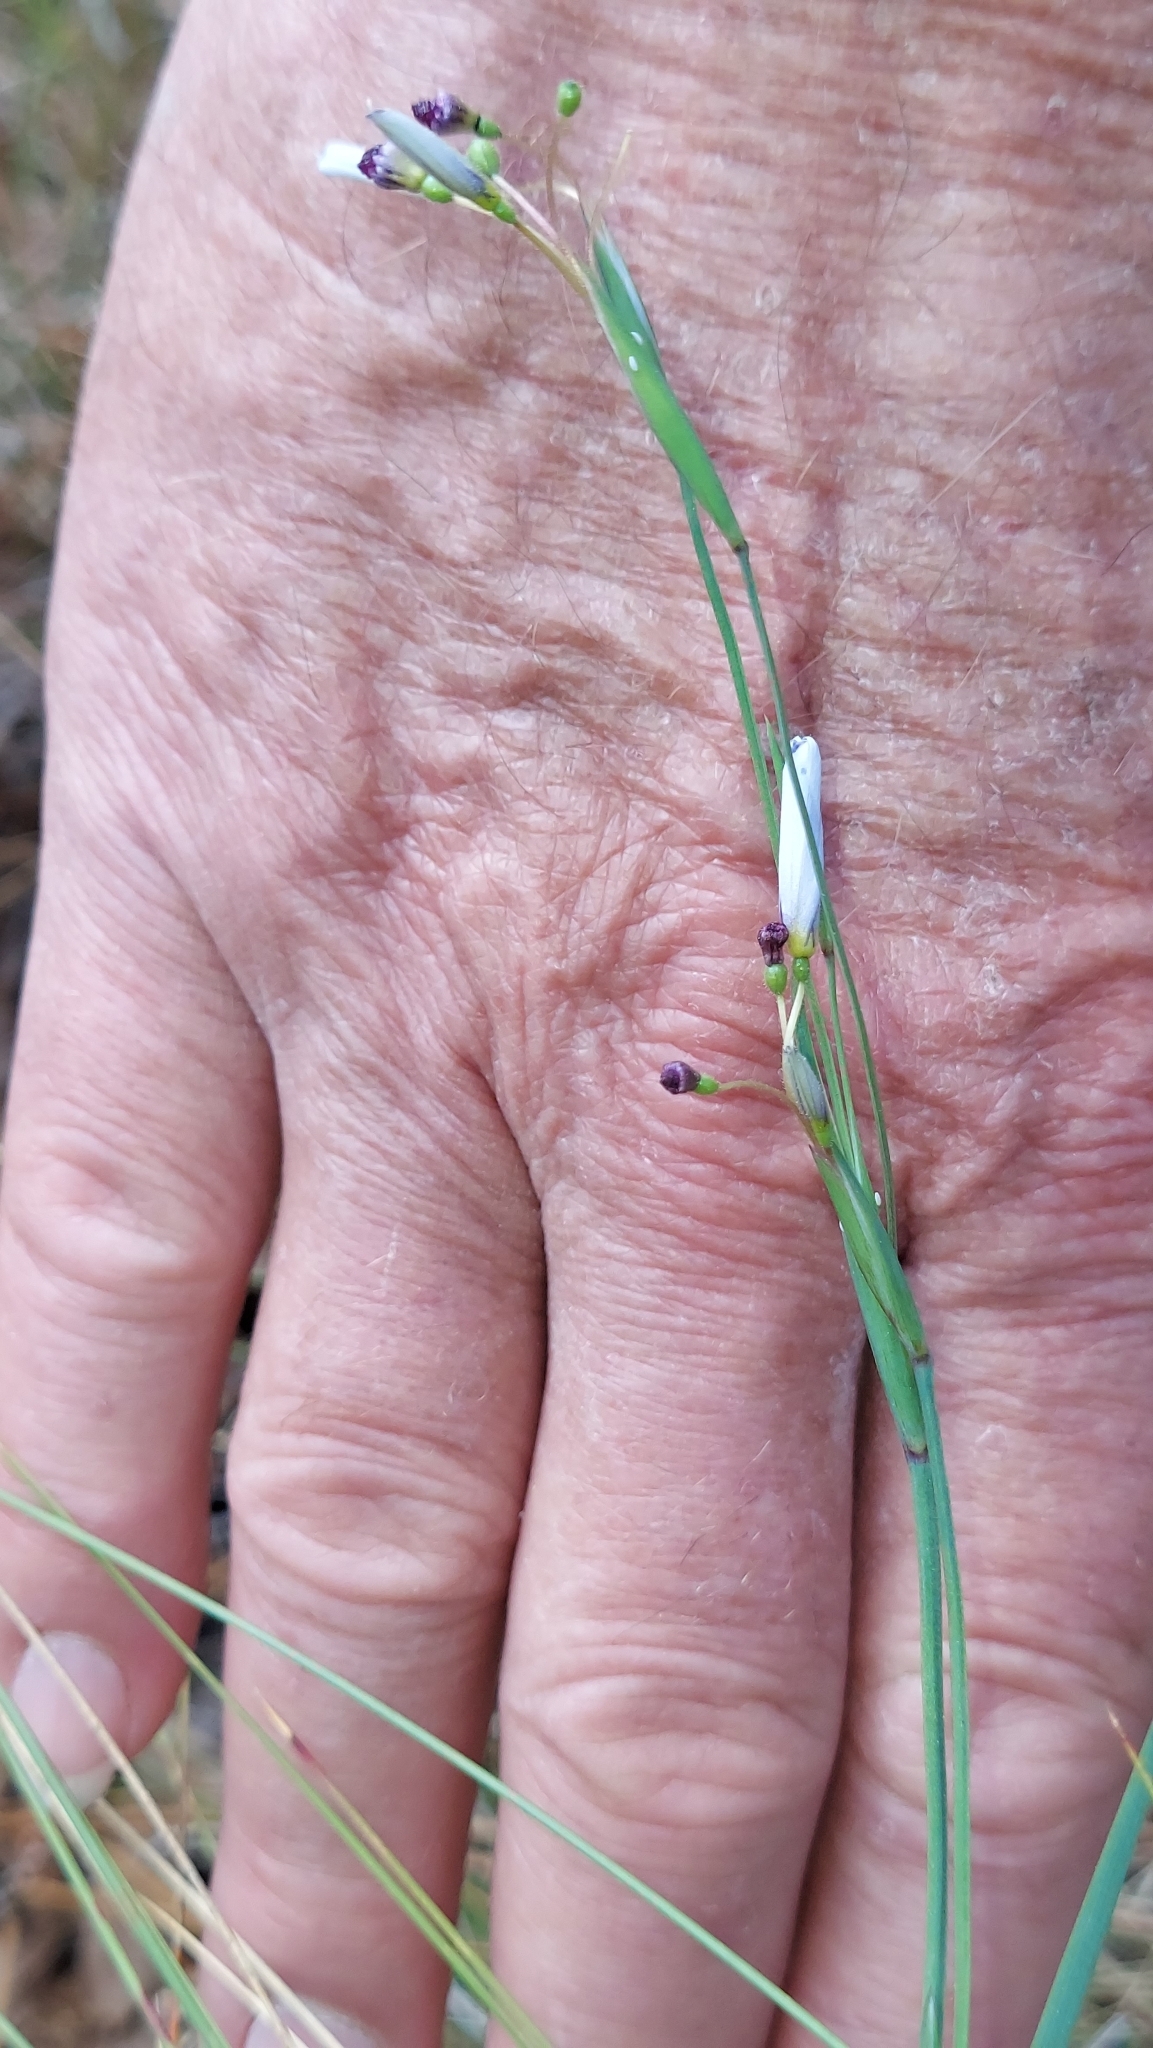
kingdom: Plantae
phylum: Tracheophyta
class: Liliopsida
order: Asparagales
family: Iridaceae
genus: Sisyrinchium
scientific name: Sisyrinchium xerophyllum
